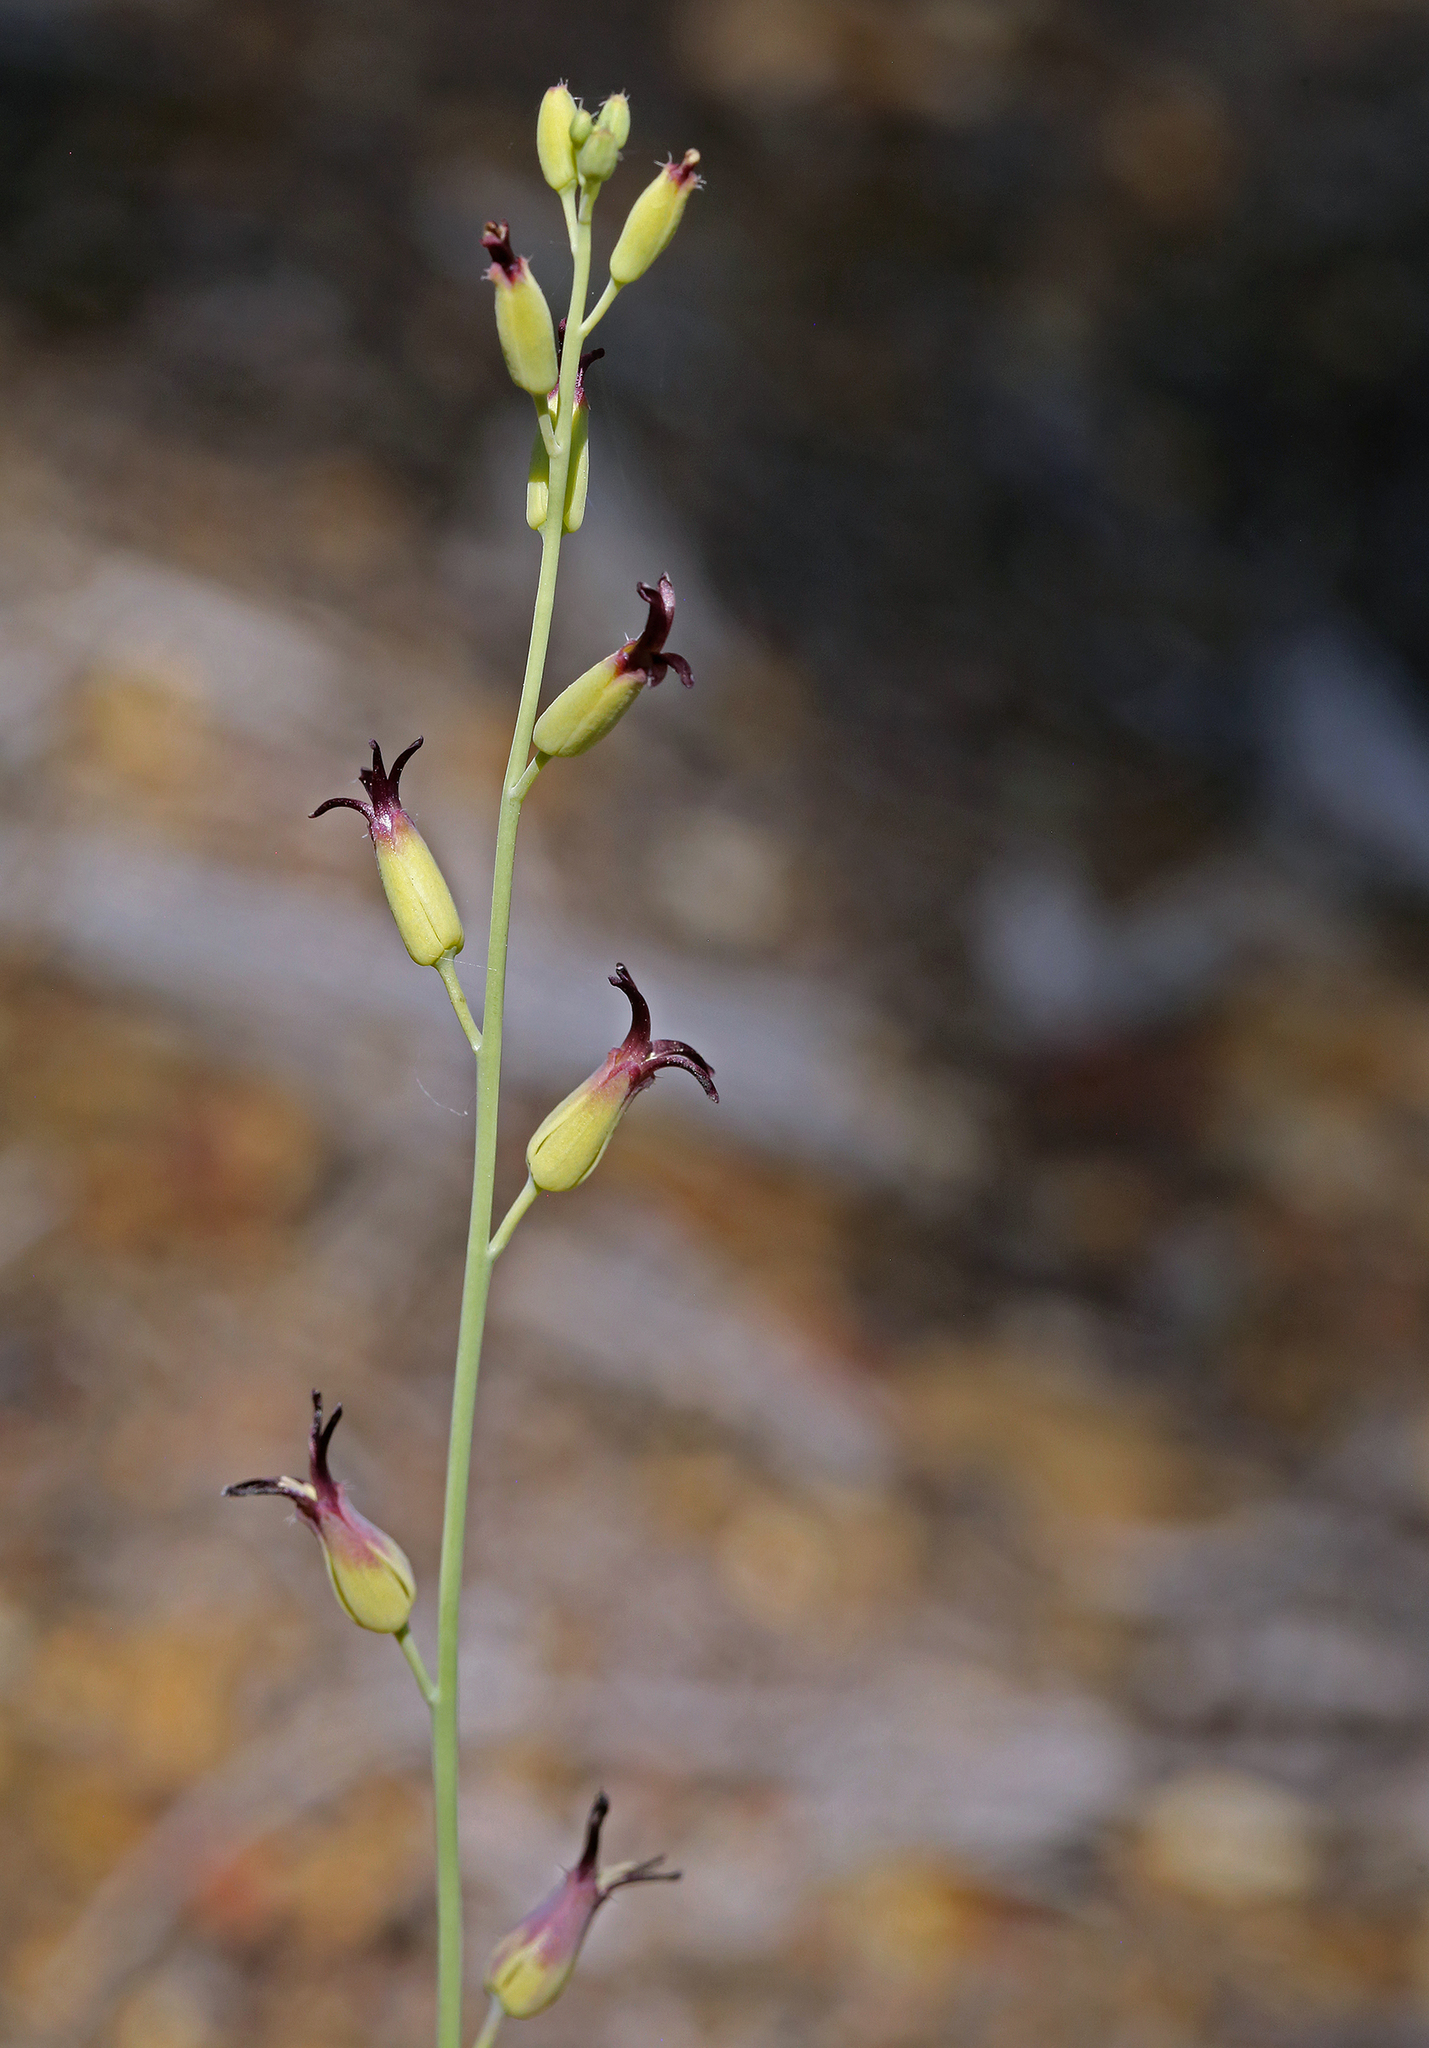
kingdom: Plantae
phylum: Tracheophyta
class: Magnoliopsida
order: Brassicales
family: Brassicaceae
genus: Streptanthus
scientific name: Streptanthus cordatus
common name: Heart-leaf jewel-flower
